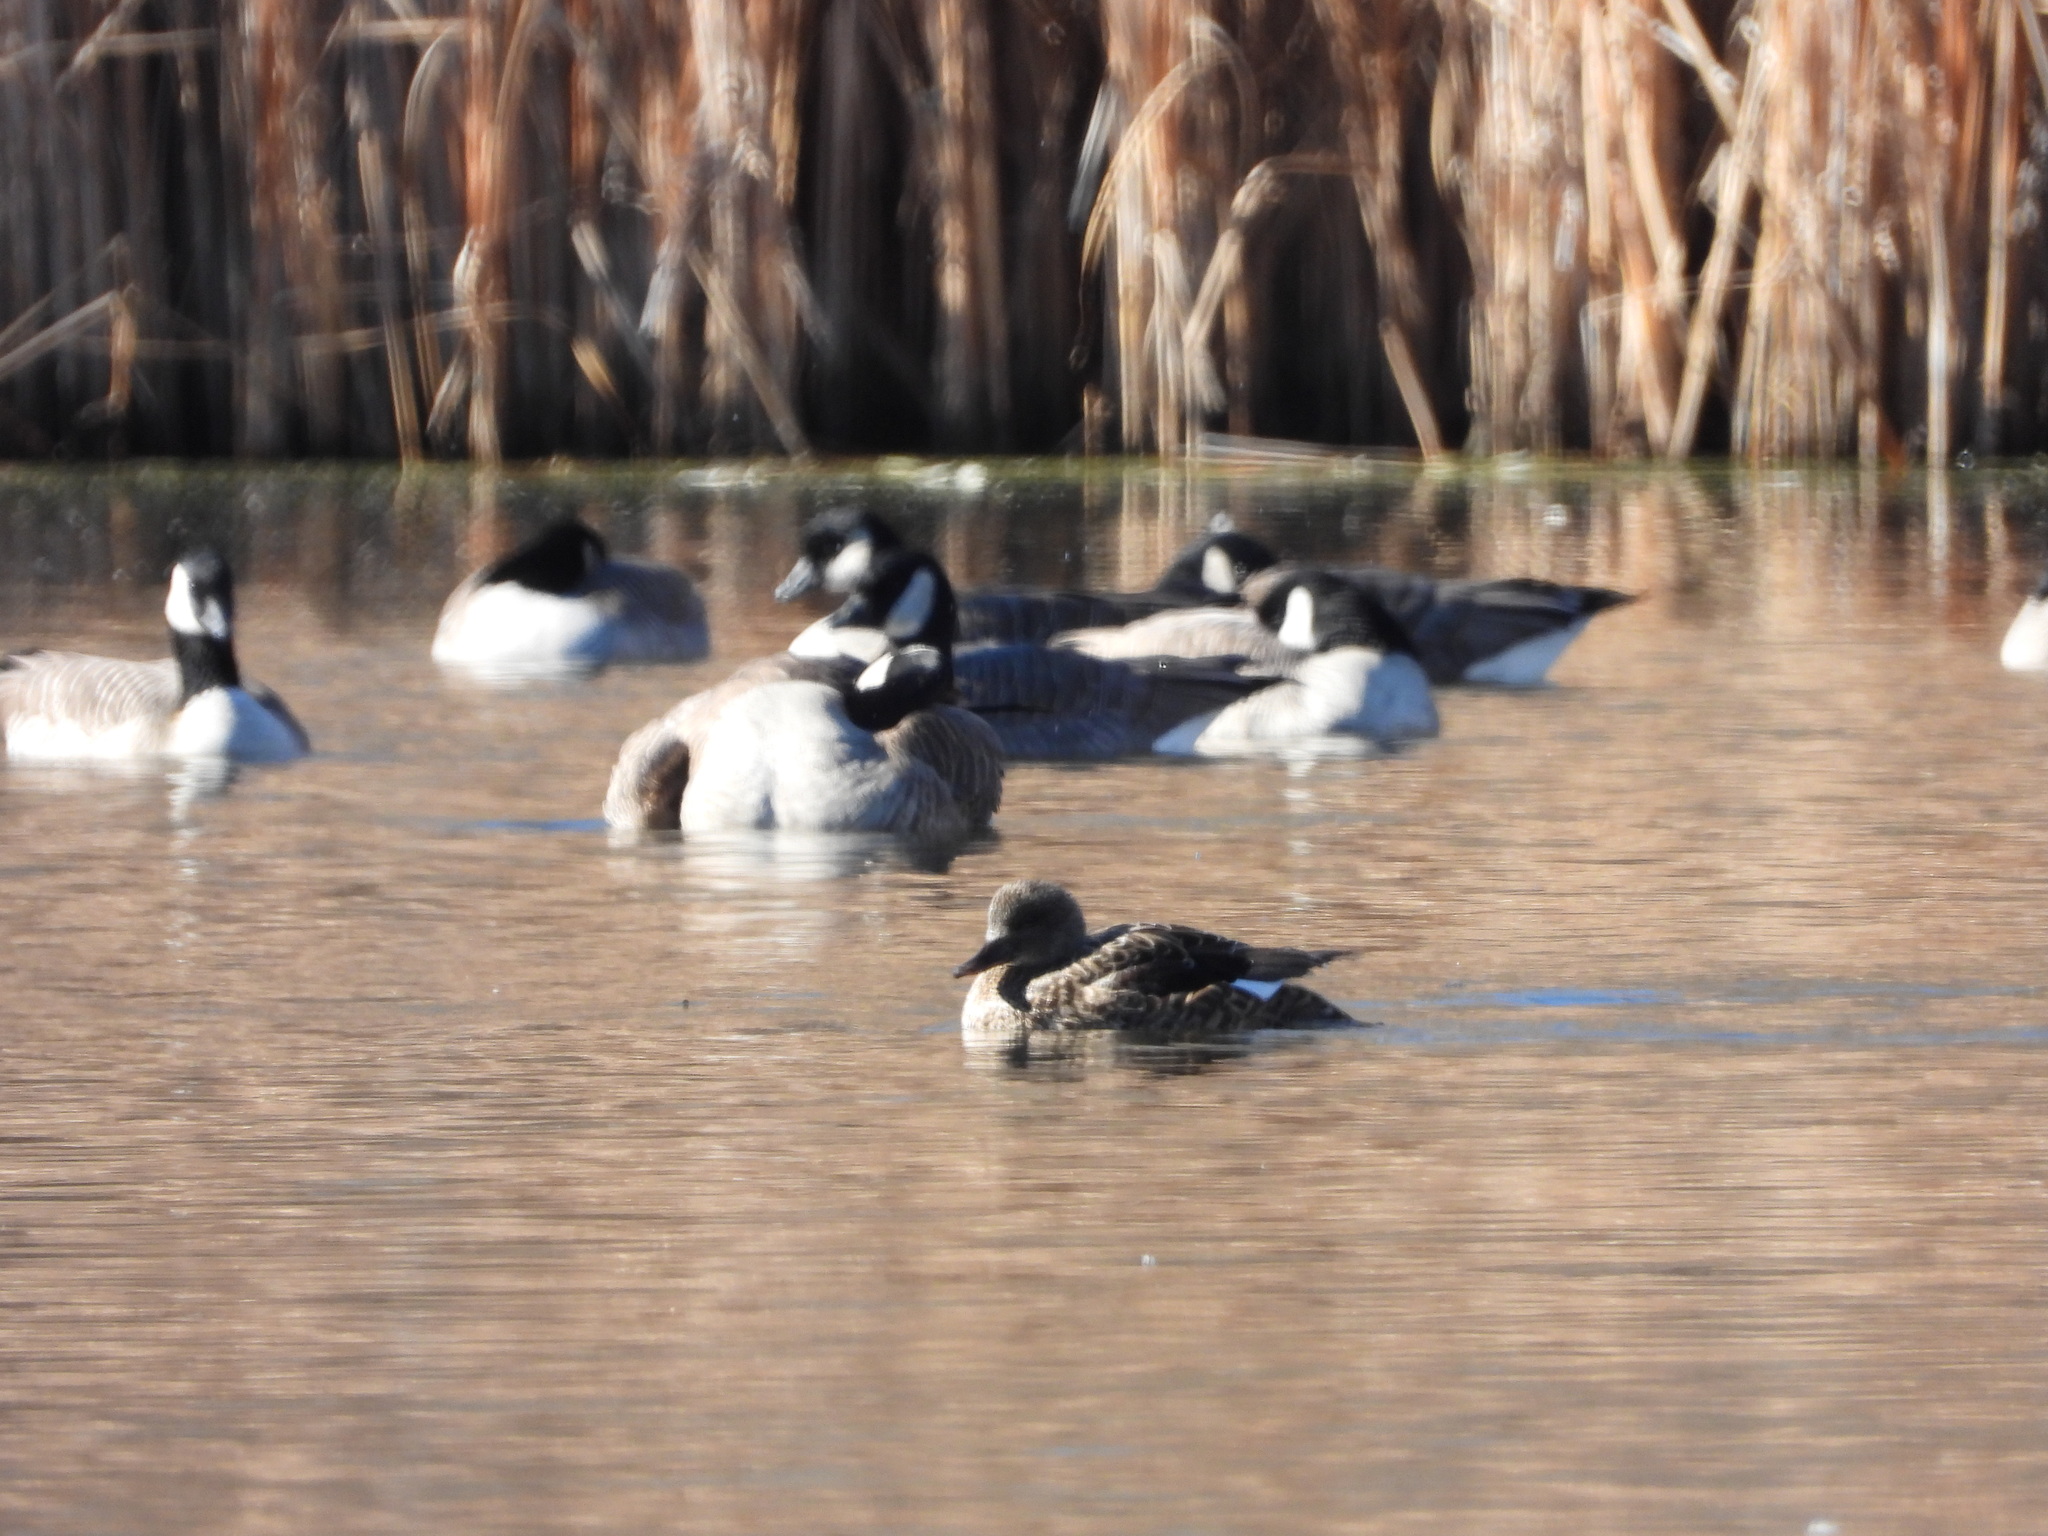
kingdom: Animalia
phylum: Chordata
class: Aves
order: Anseriformes
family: Anatidae
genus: Mareca
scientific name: Mareca strepera
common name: Gadwall
